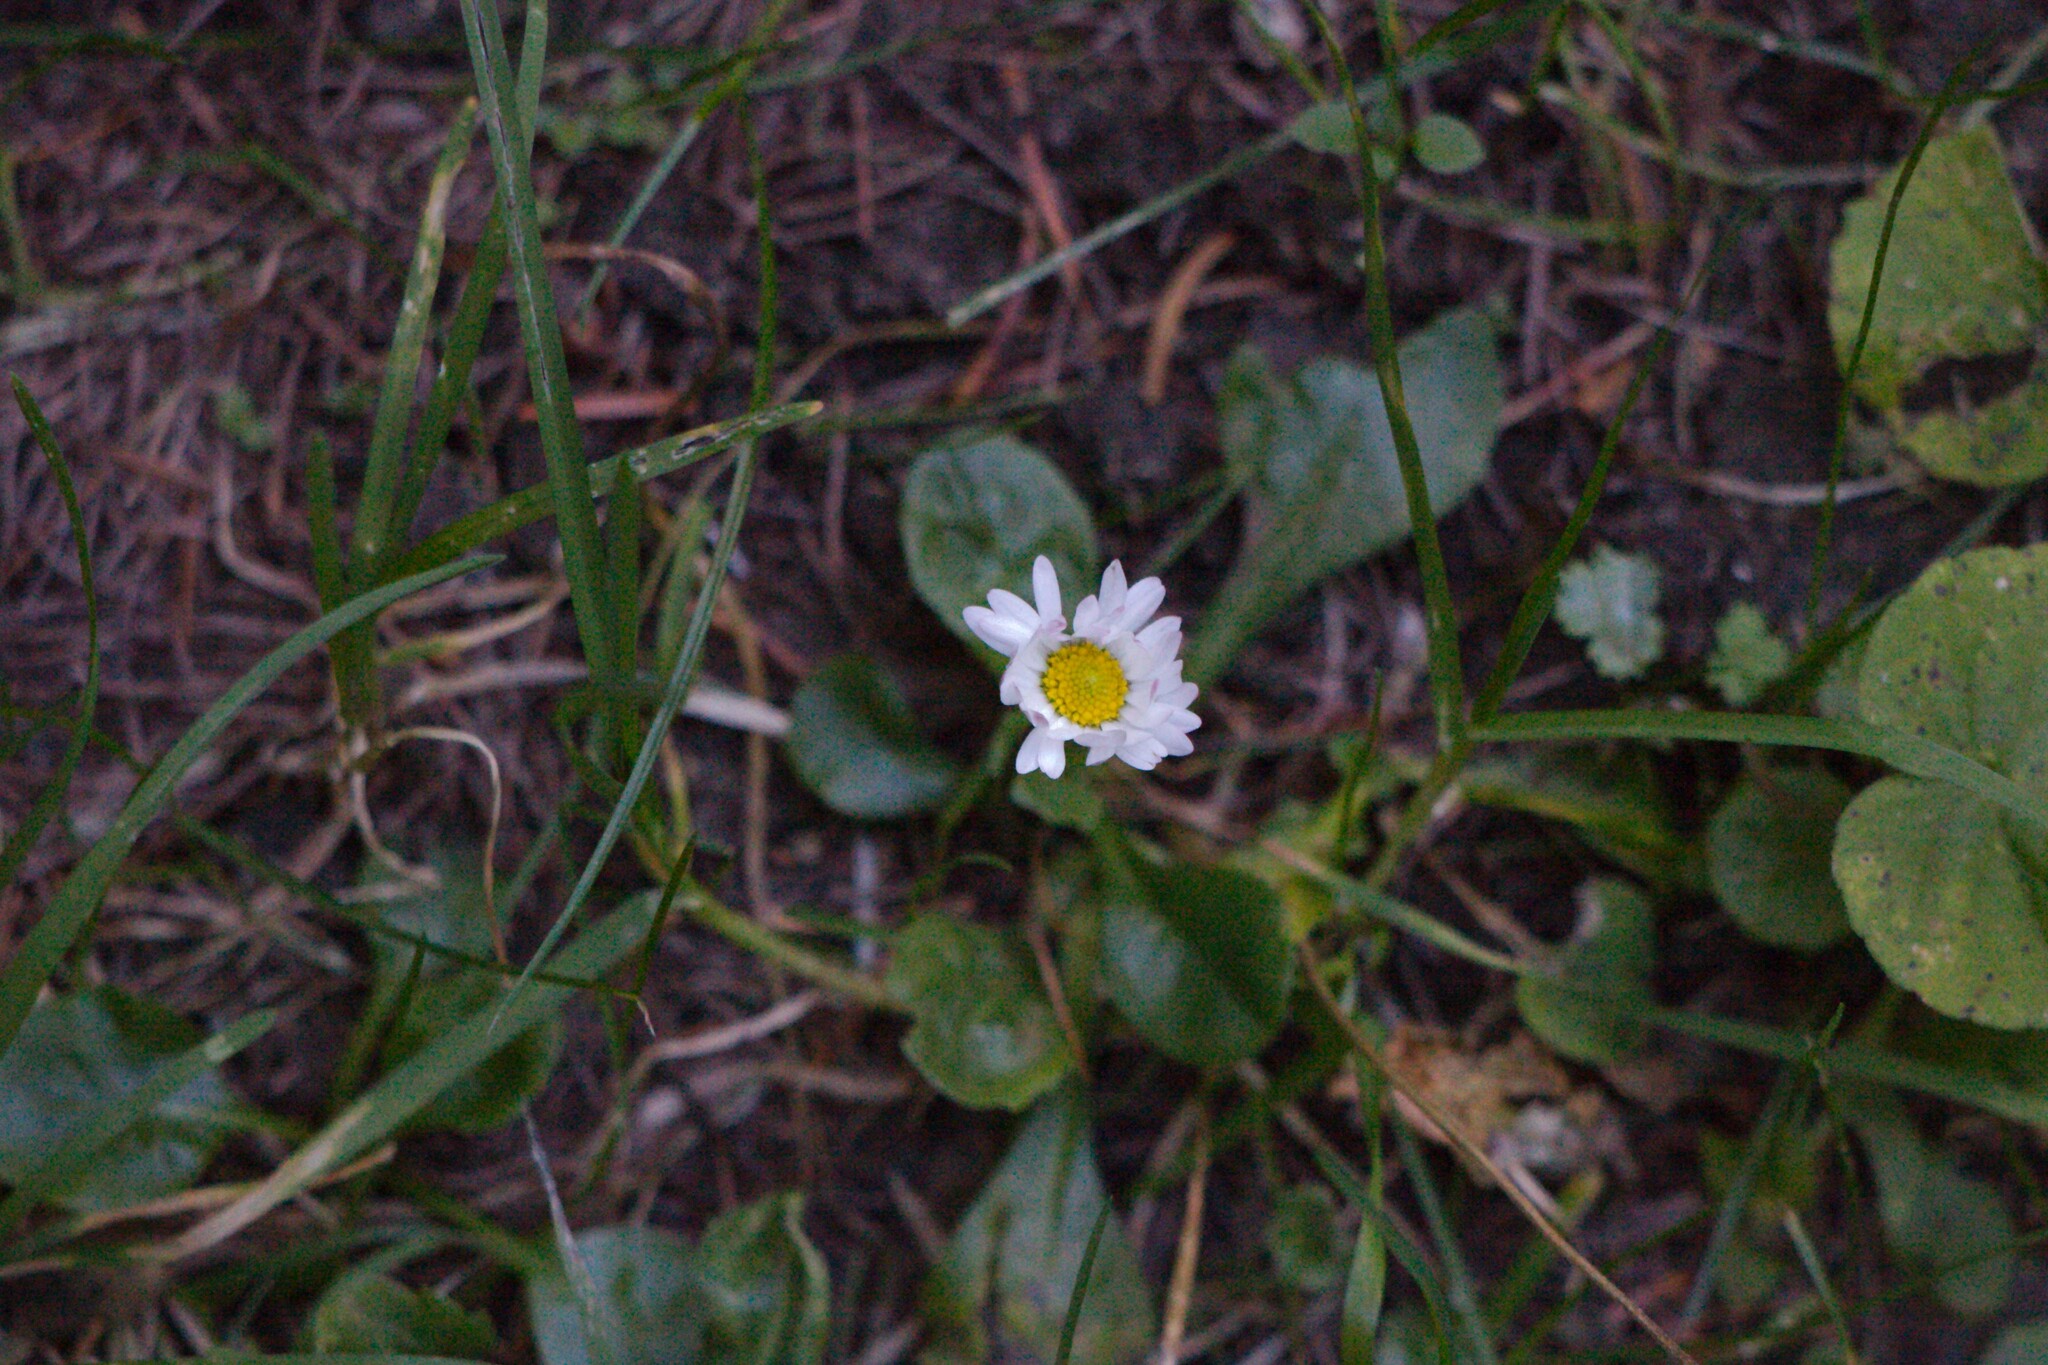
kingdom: Plantae
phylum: Tracheophyta
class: Magnoliopsida
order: Asterales
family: Asteraceae
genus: Bellis
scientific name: Bellis perennis
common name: Lawndaisy
